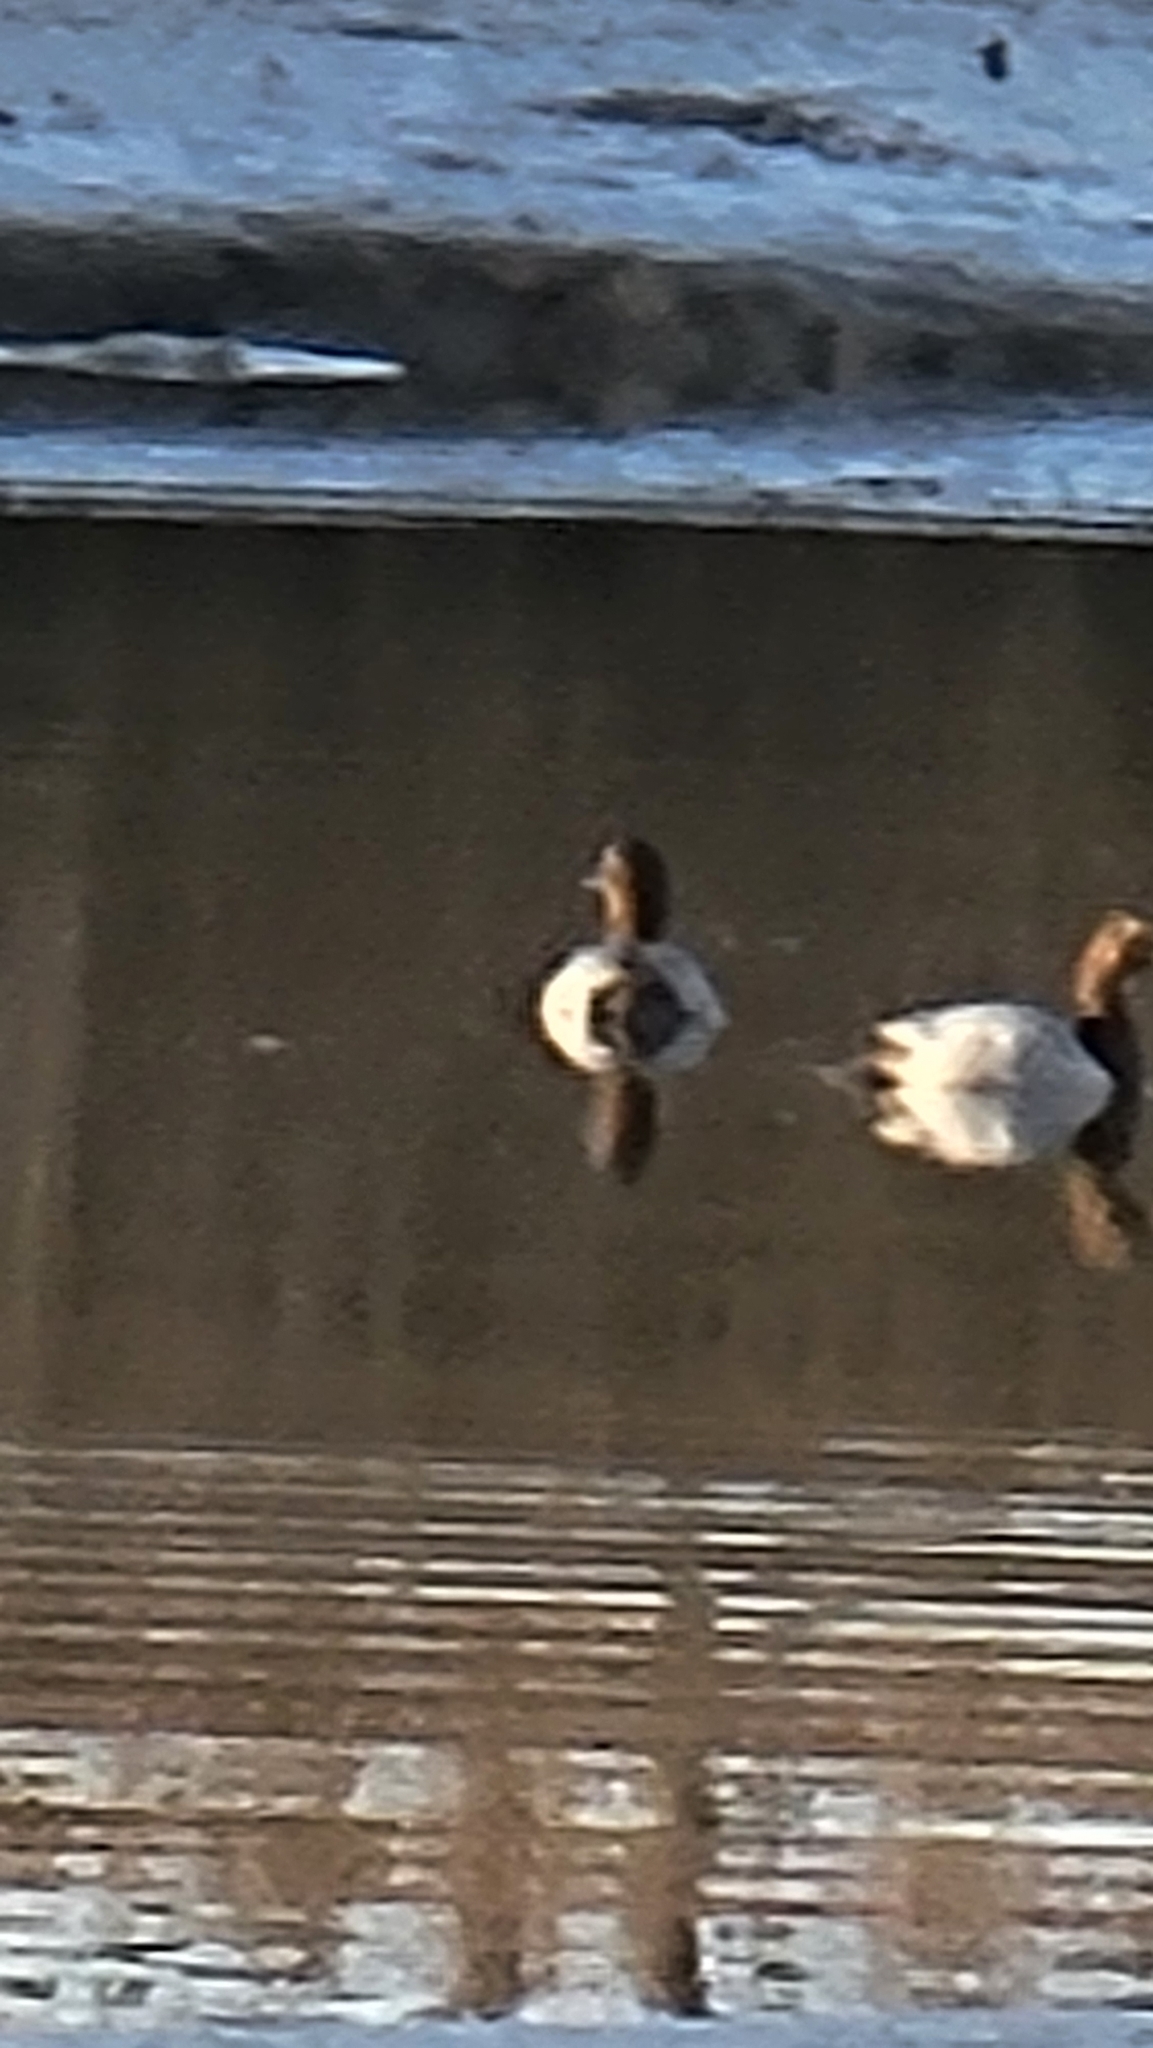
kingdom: Animalia
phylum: Chordata
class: Aves
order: Anseriformes
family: Anatidae
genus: Aythya
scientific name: Aythya valisineria
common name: Canvasback
